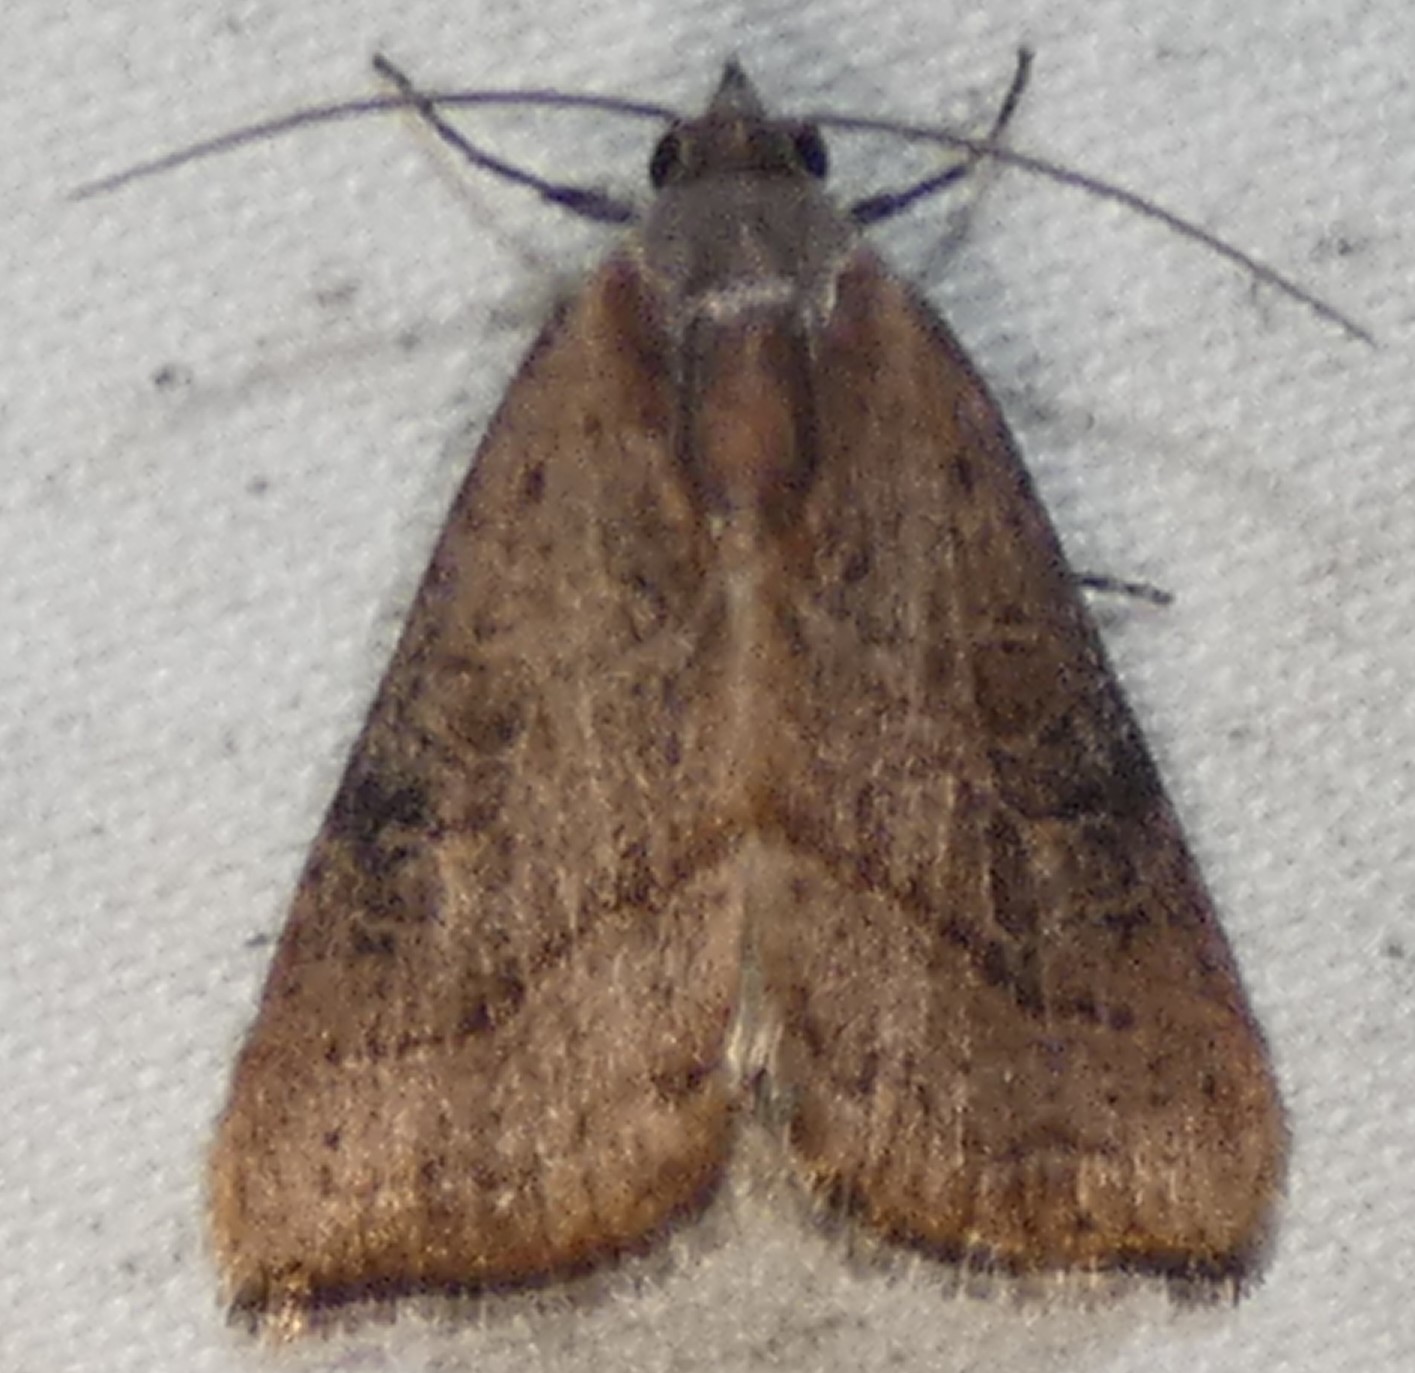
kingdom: Animalia
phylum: Arthropoda
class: Insecta
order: Lepidoptera
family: Noctuidae
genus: Galgula
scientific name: Galgula partita
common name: Wedgeling
